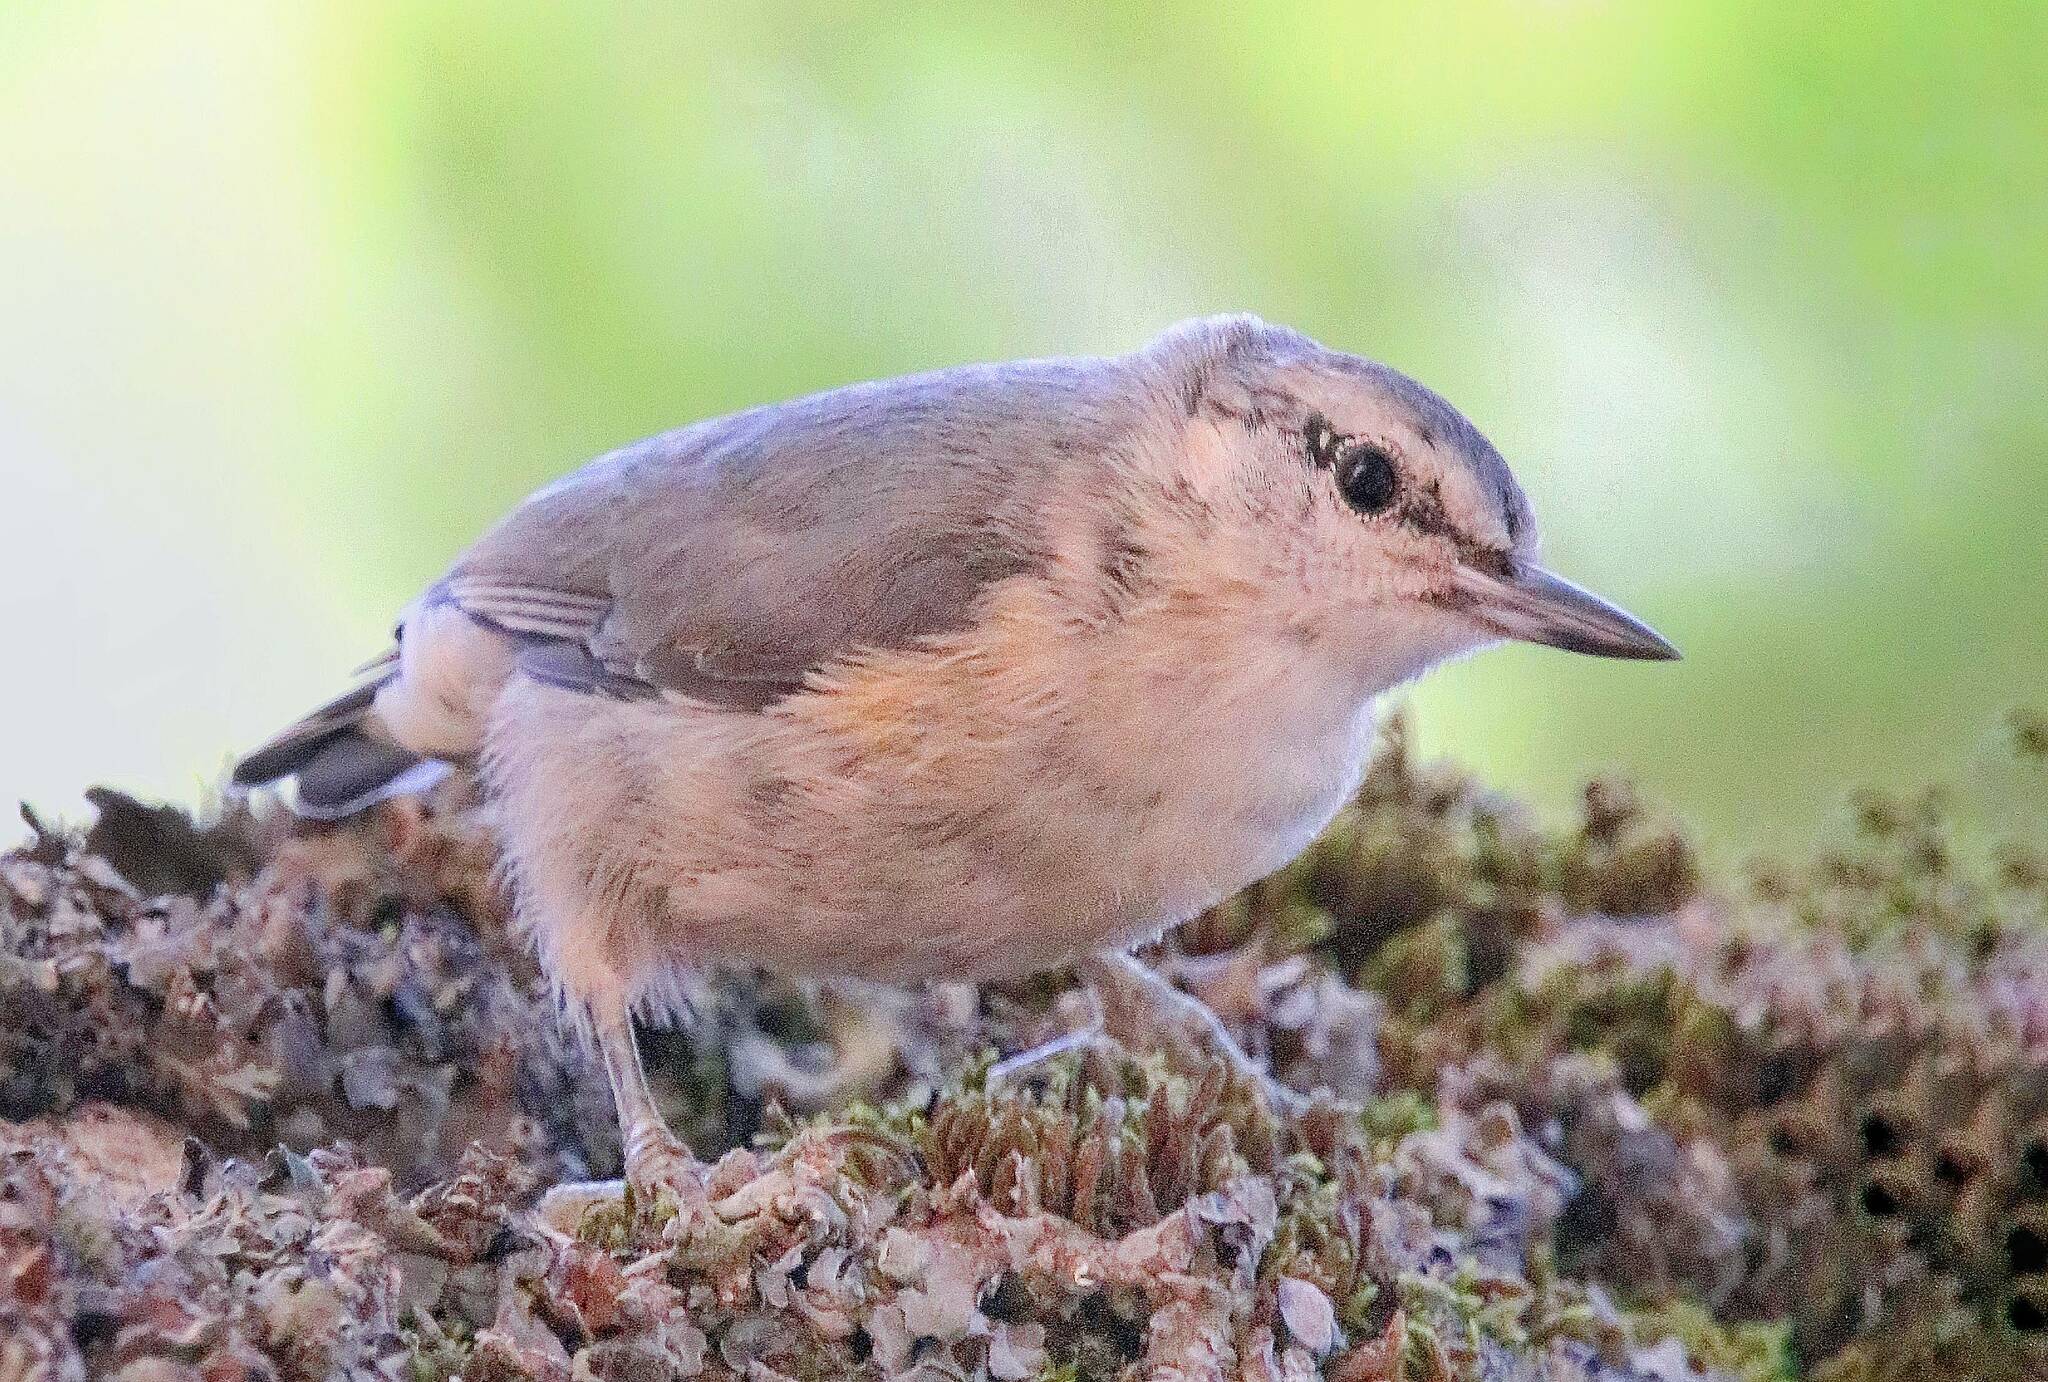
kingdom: Animalia
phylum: Chordata
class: Aves
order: Passeriformes
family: Sittidae
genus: Sitta
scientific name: Sitta ledanti
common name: Algerian nuthatch
